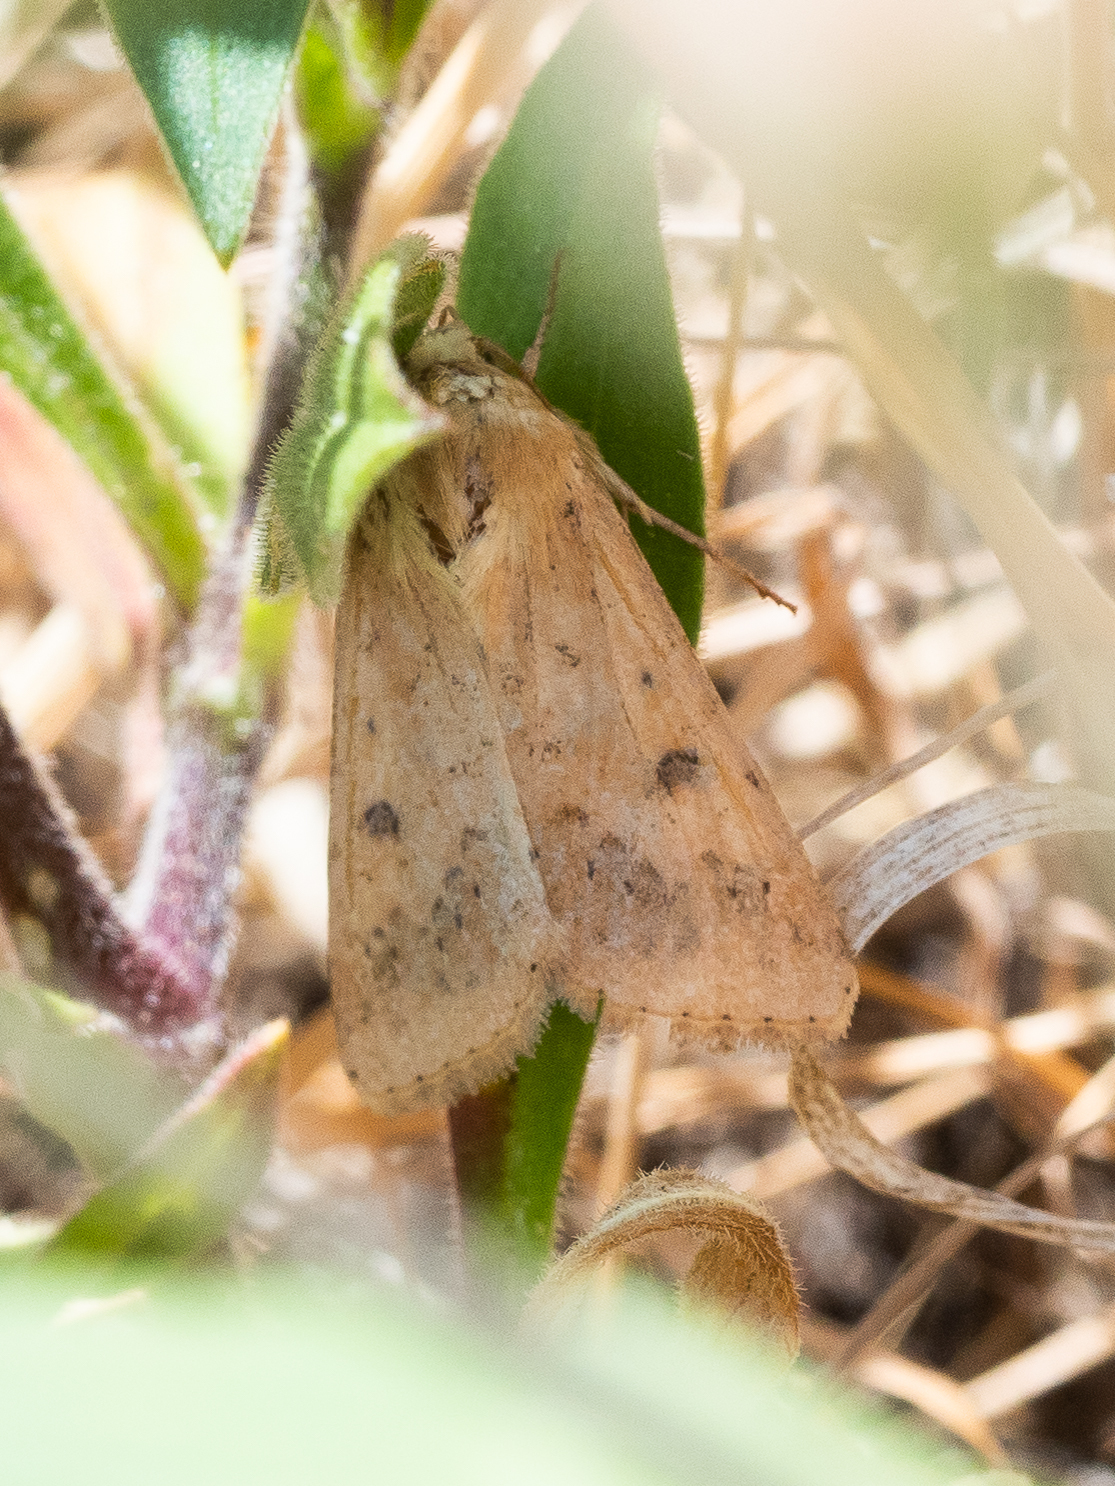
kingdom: Animalia
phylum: Arthropoda
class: Insecta
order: Lepidoptera
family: Noctuidae
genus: Helicoverpa
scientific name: Helicoverpa armigera
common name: Cotton bollworm
